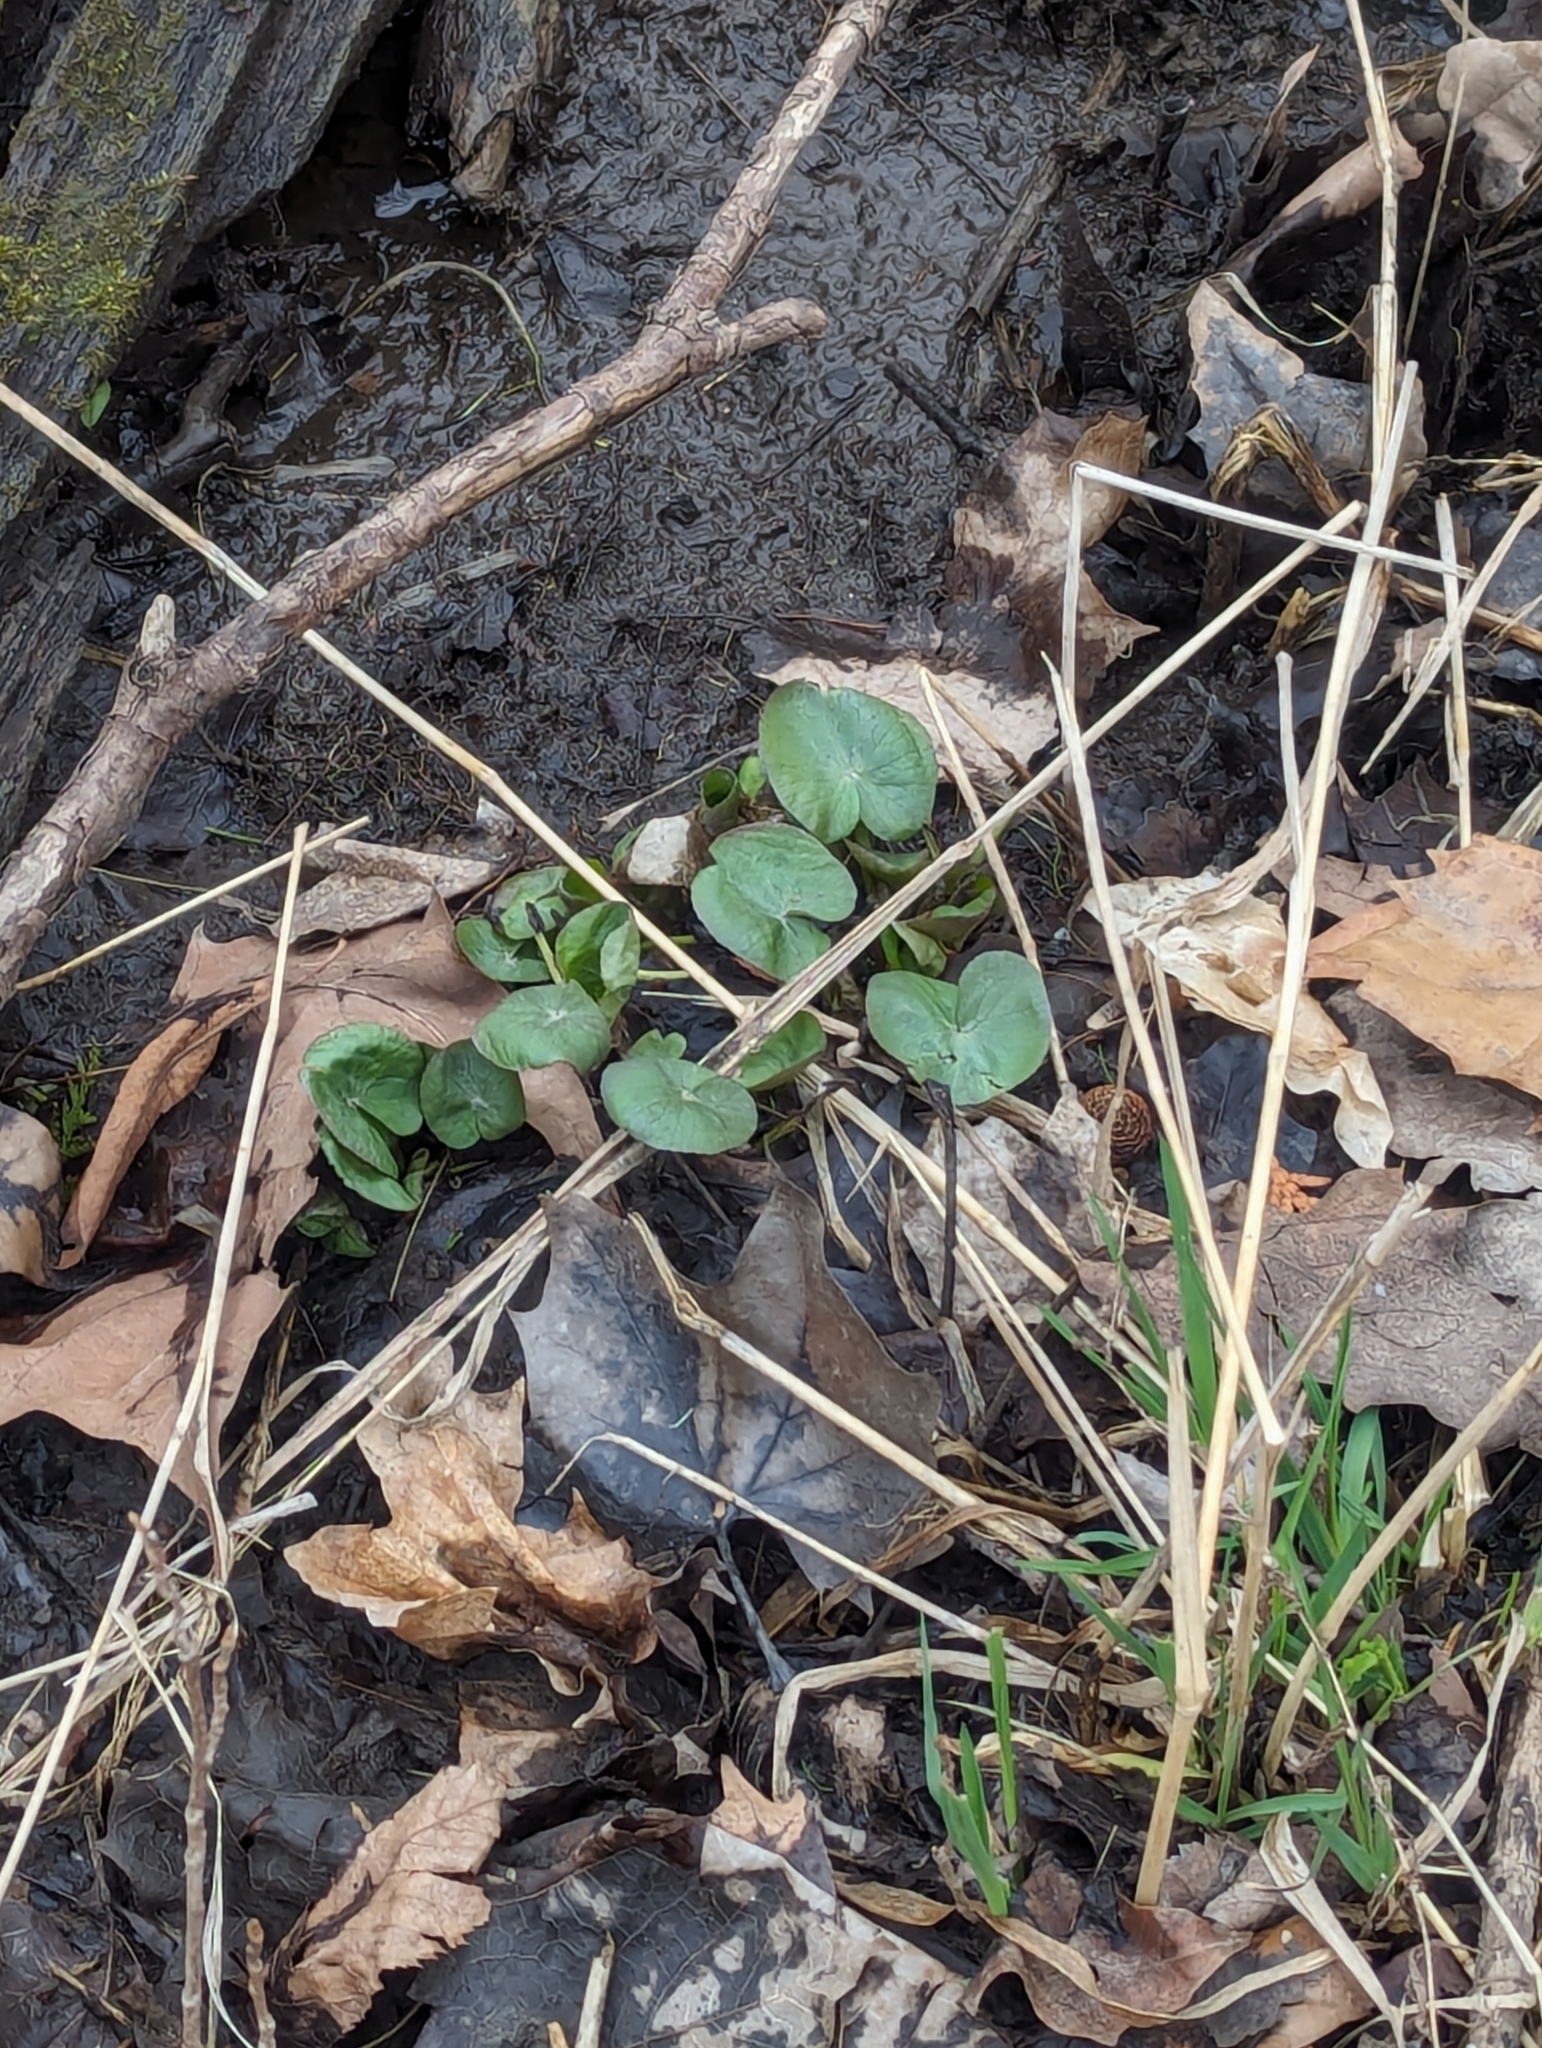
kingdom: Plantae
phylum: Tracheophyta
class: Magnoliopsida
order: Ranunculales
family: Ranunculaceae
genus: Caltha
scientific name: Caltha palustris
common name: Marsh marigold
